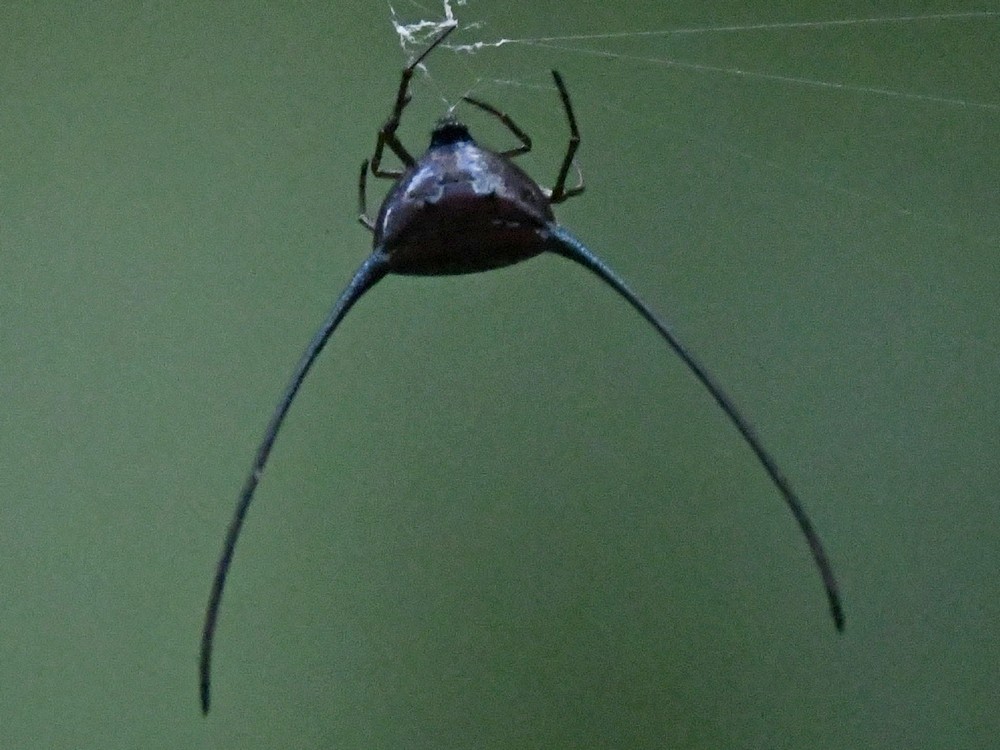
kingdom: Animalia
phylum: Arthropoda
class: Arachnida
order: Araneae
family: Araneidae
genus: Macracantha
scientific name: Macracantha arcuata
